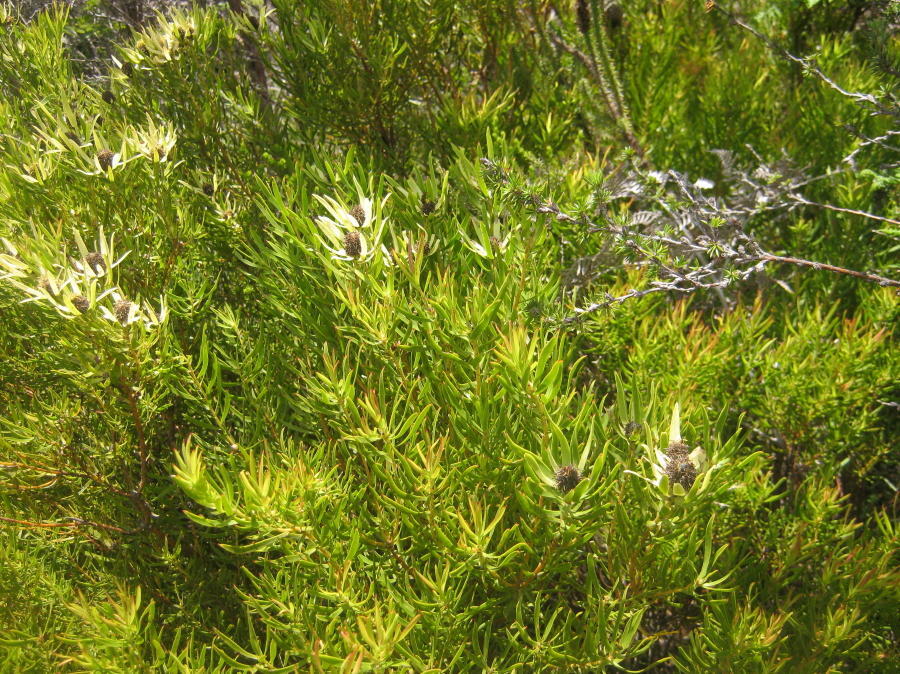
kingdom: Plantae
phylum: Tracheophyta
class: Magnoliopsida
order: Proteales
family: Proteaceae
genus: Leucadendron
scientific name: Leucadendron spissifolium
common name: Spear-leaf conebush
